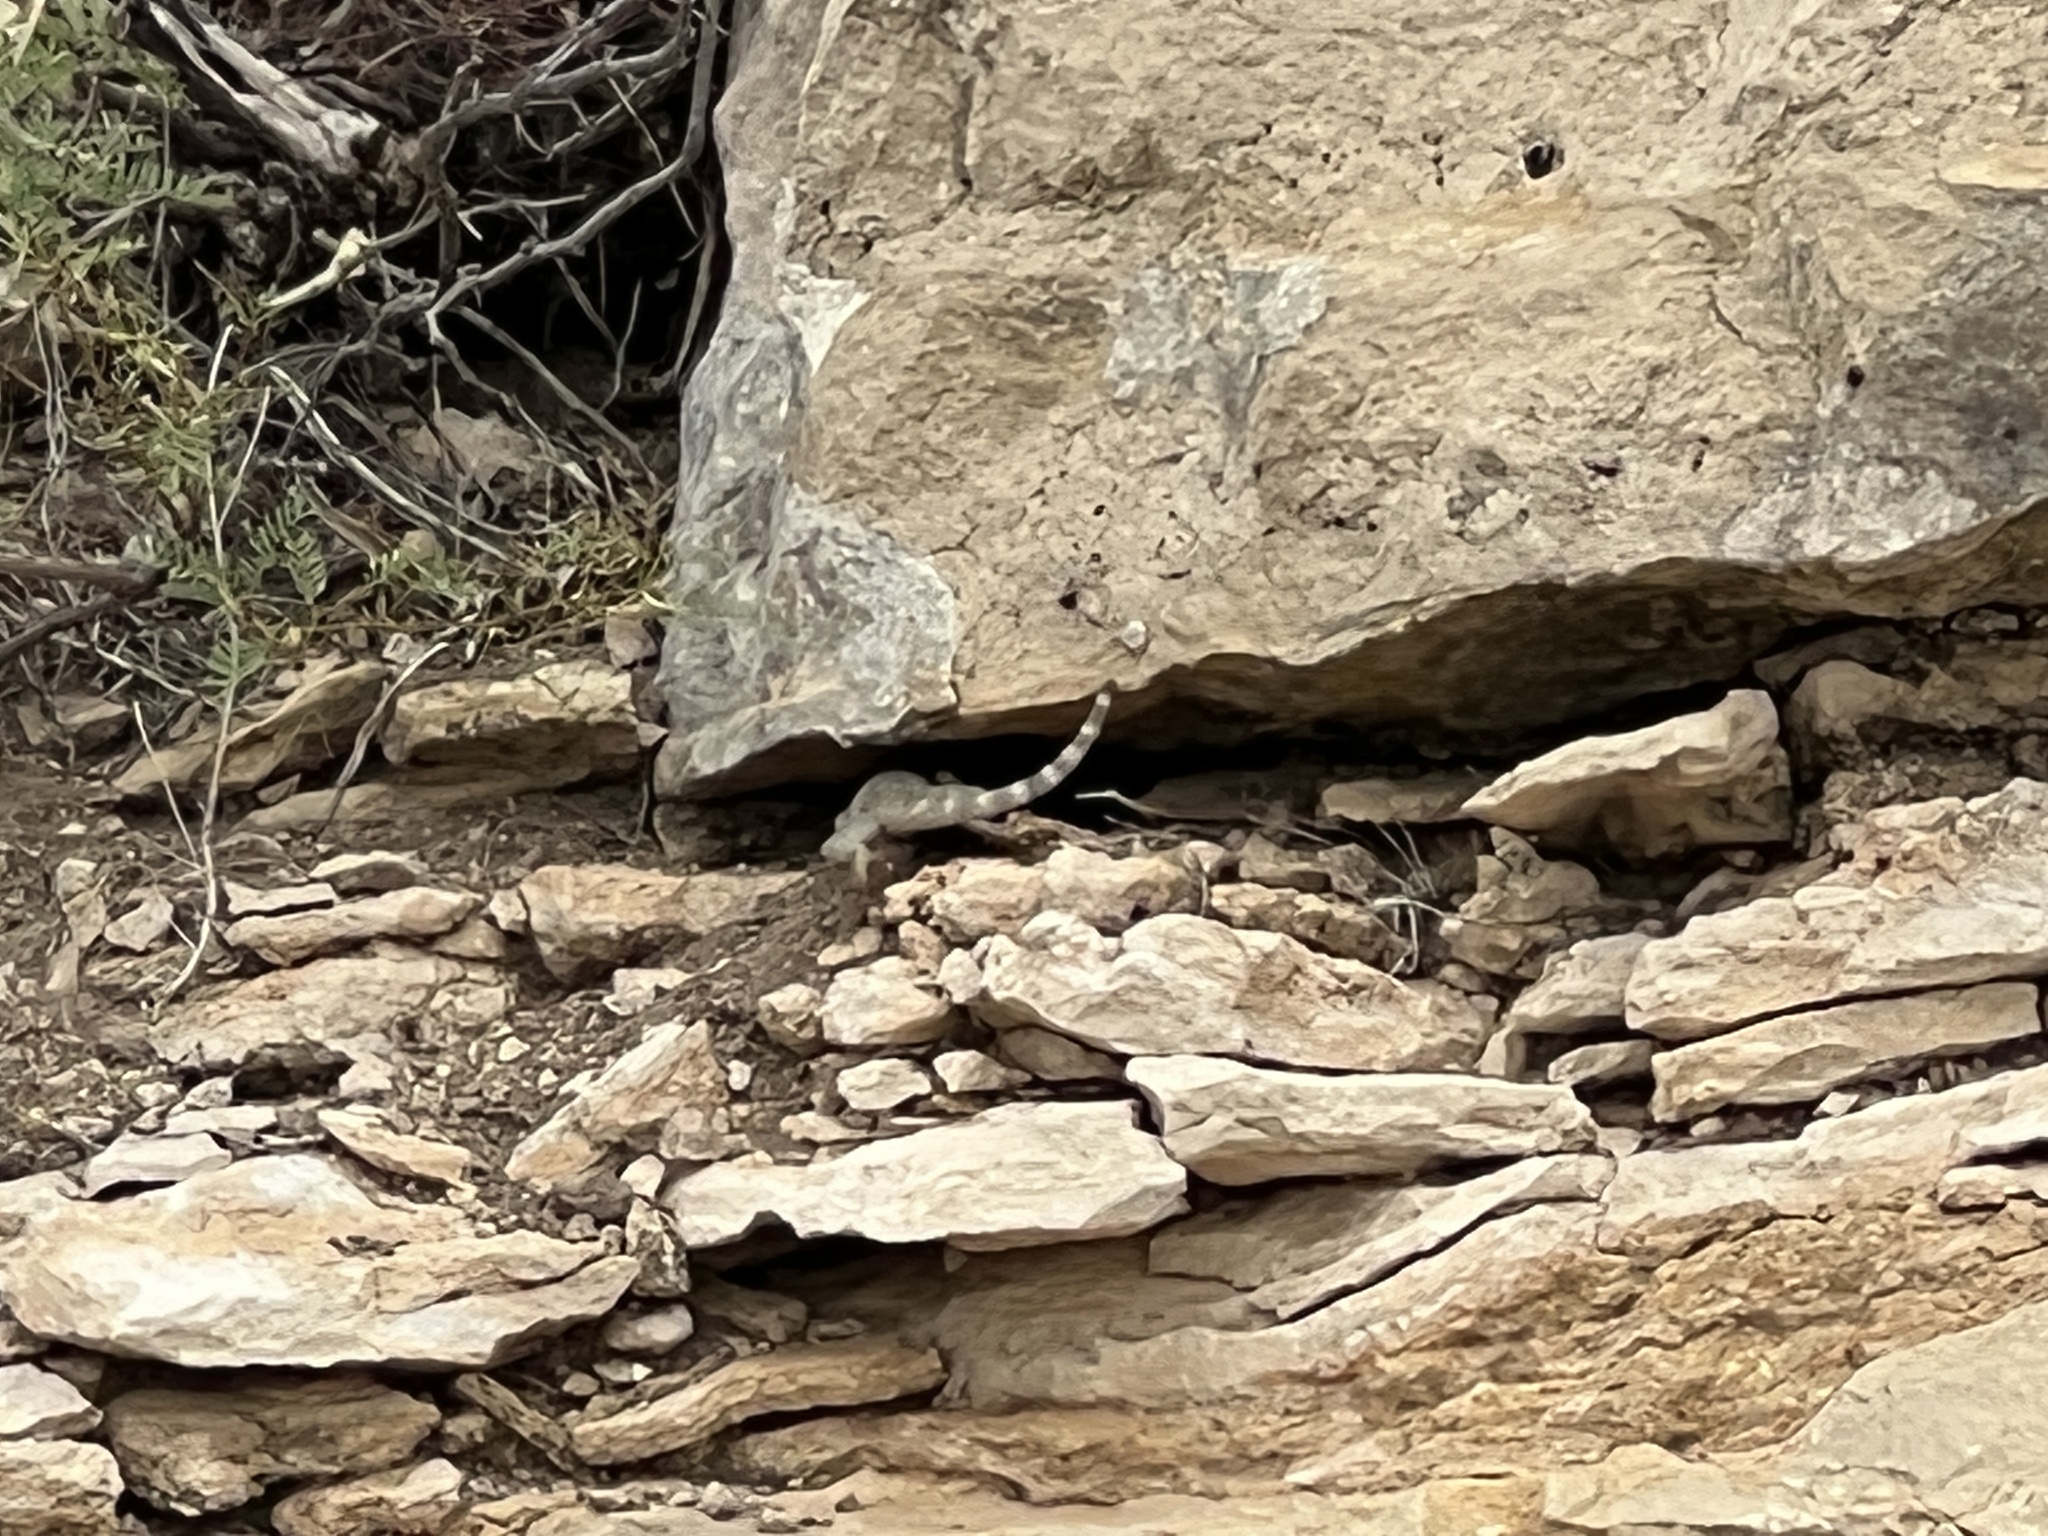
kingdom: Animalia
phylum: Chordata
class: Squamata
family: Phrynosomatidae
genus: Sceloporus
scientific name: Sceloporus poinsettii
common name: Crevice spiny lizard
